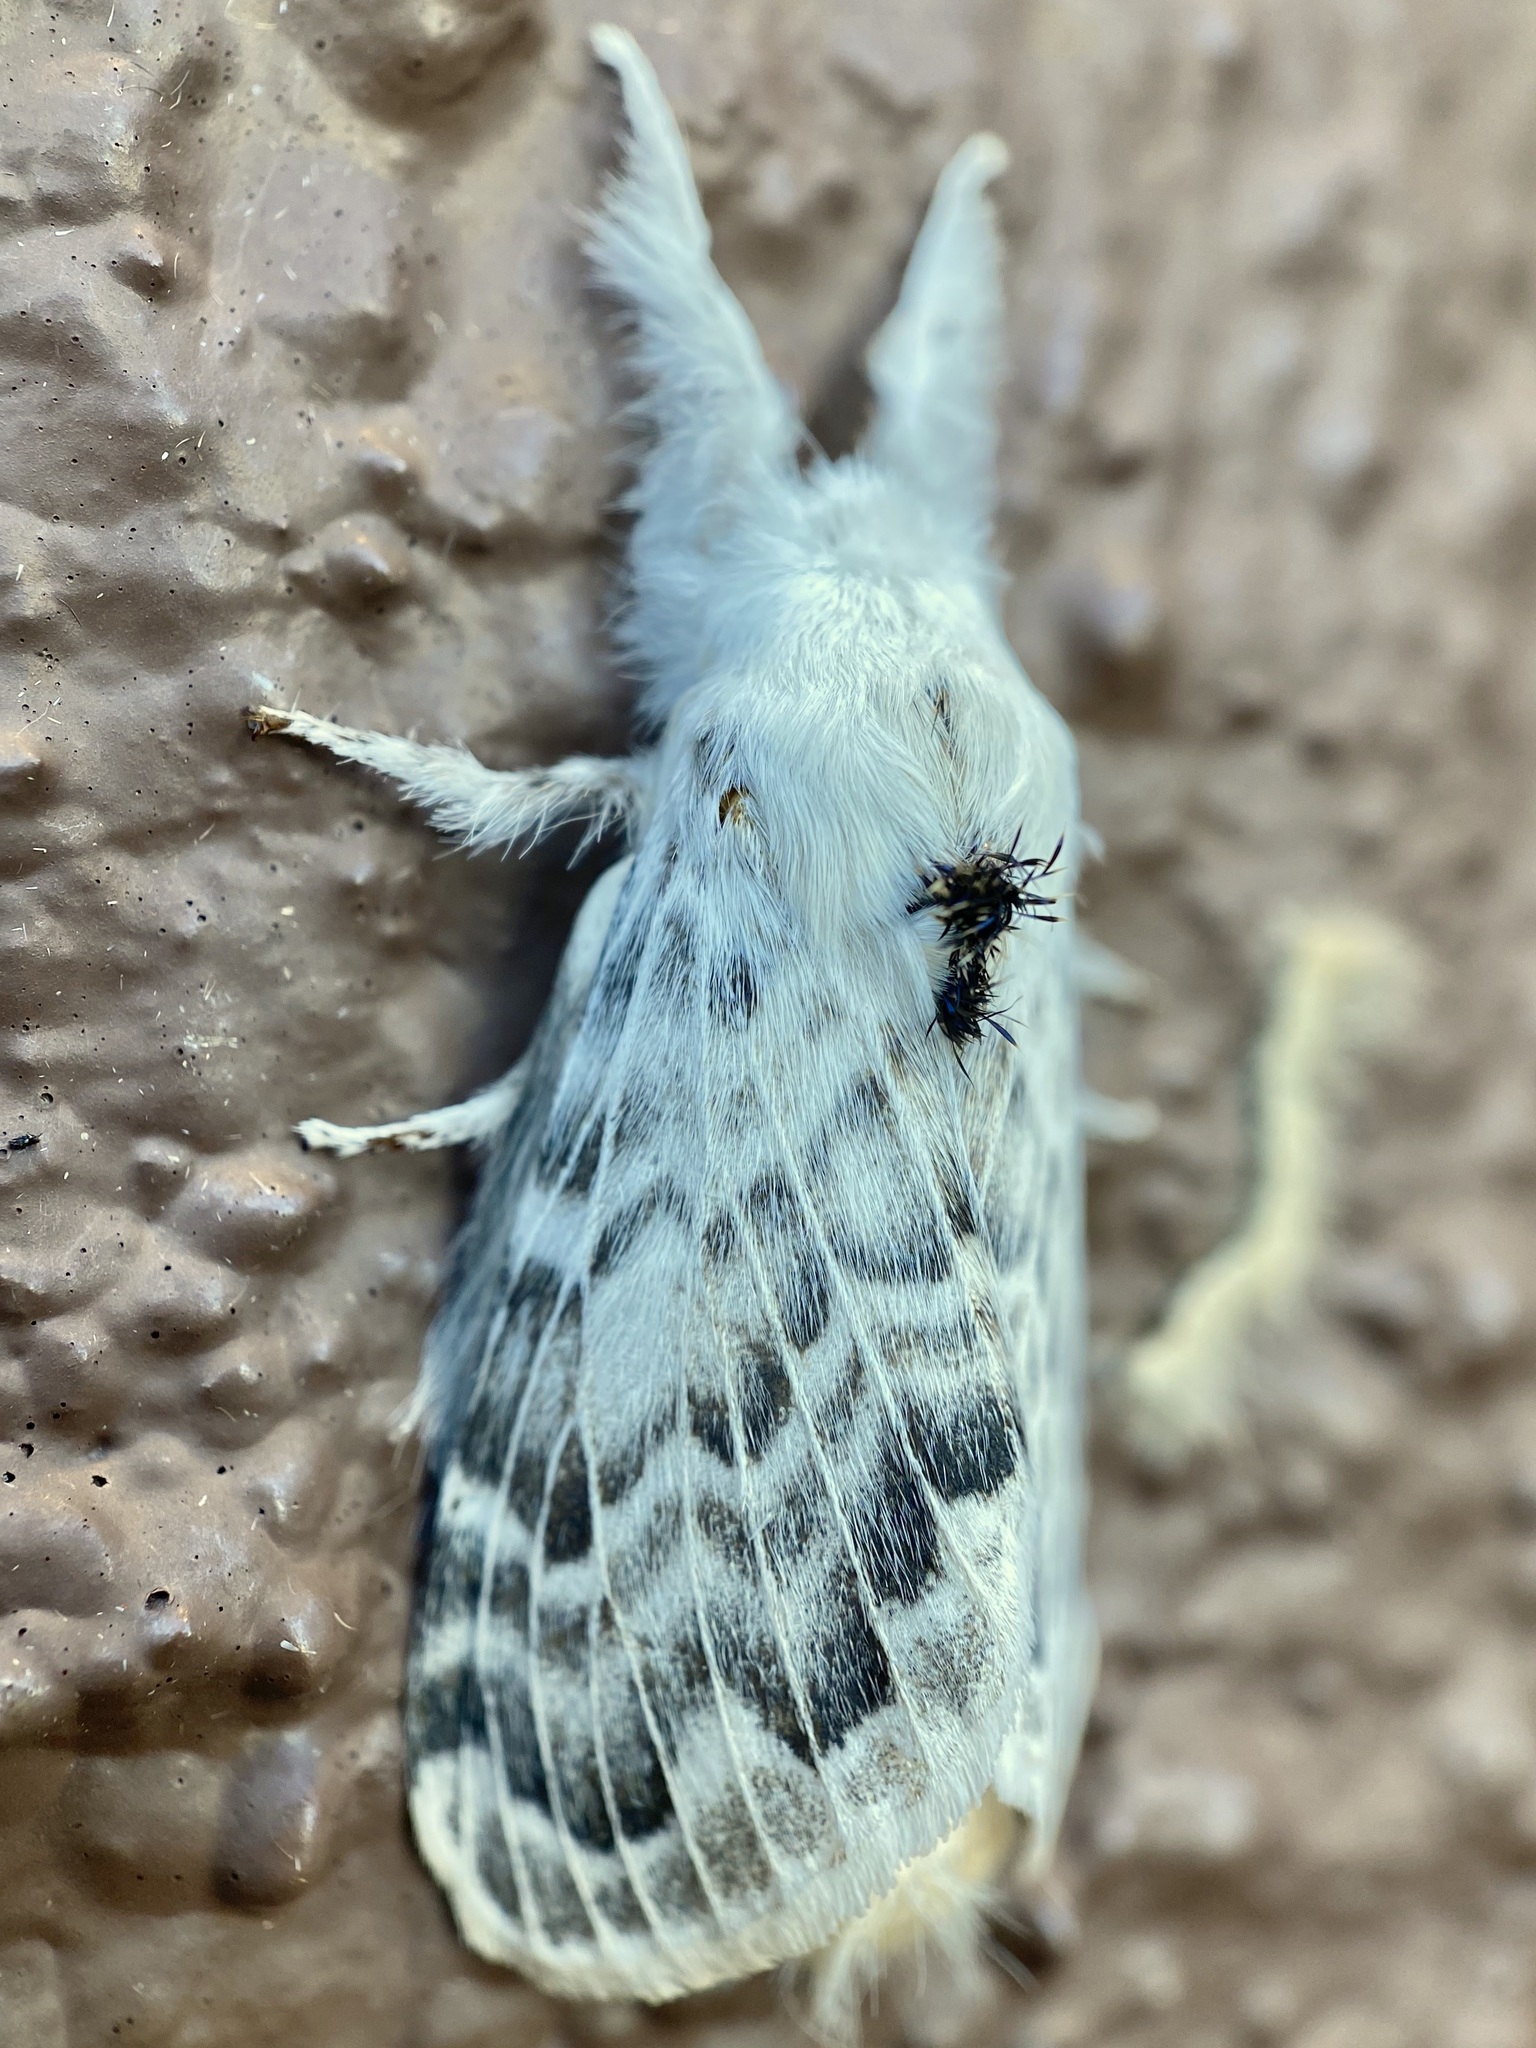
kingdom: Animalia
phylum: Arthropoda
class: Insecta
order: Lepidoptera
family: Lasiocampidae
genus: Apotolype
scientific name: Apotolype brevicrista
